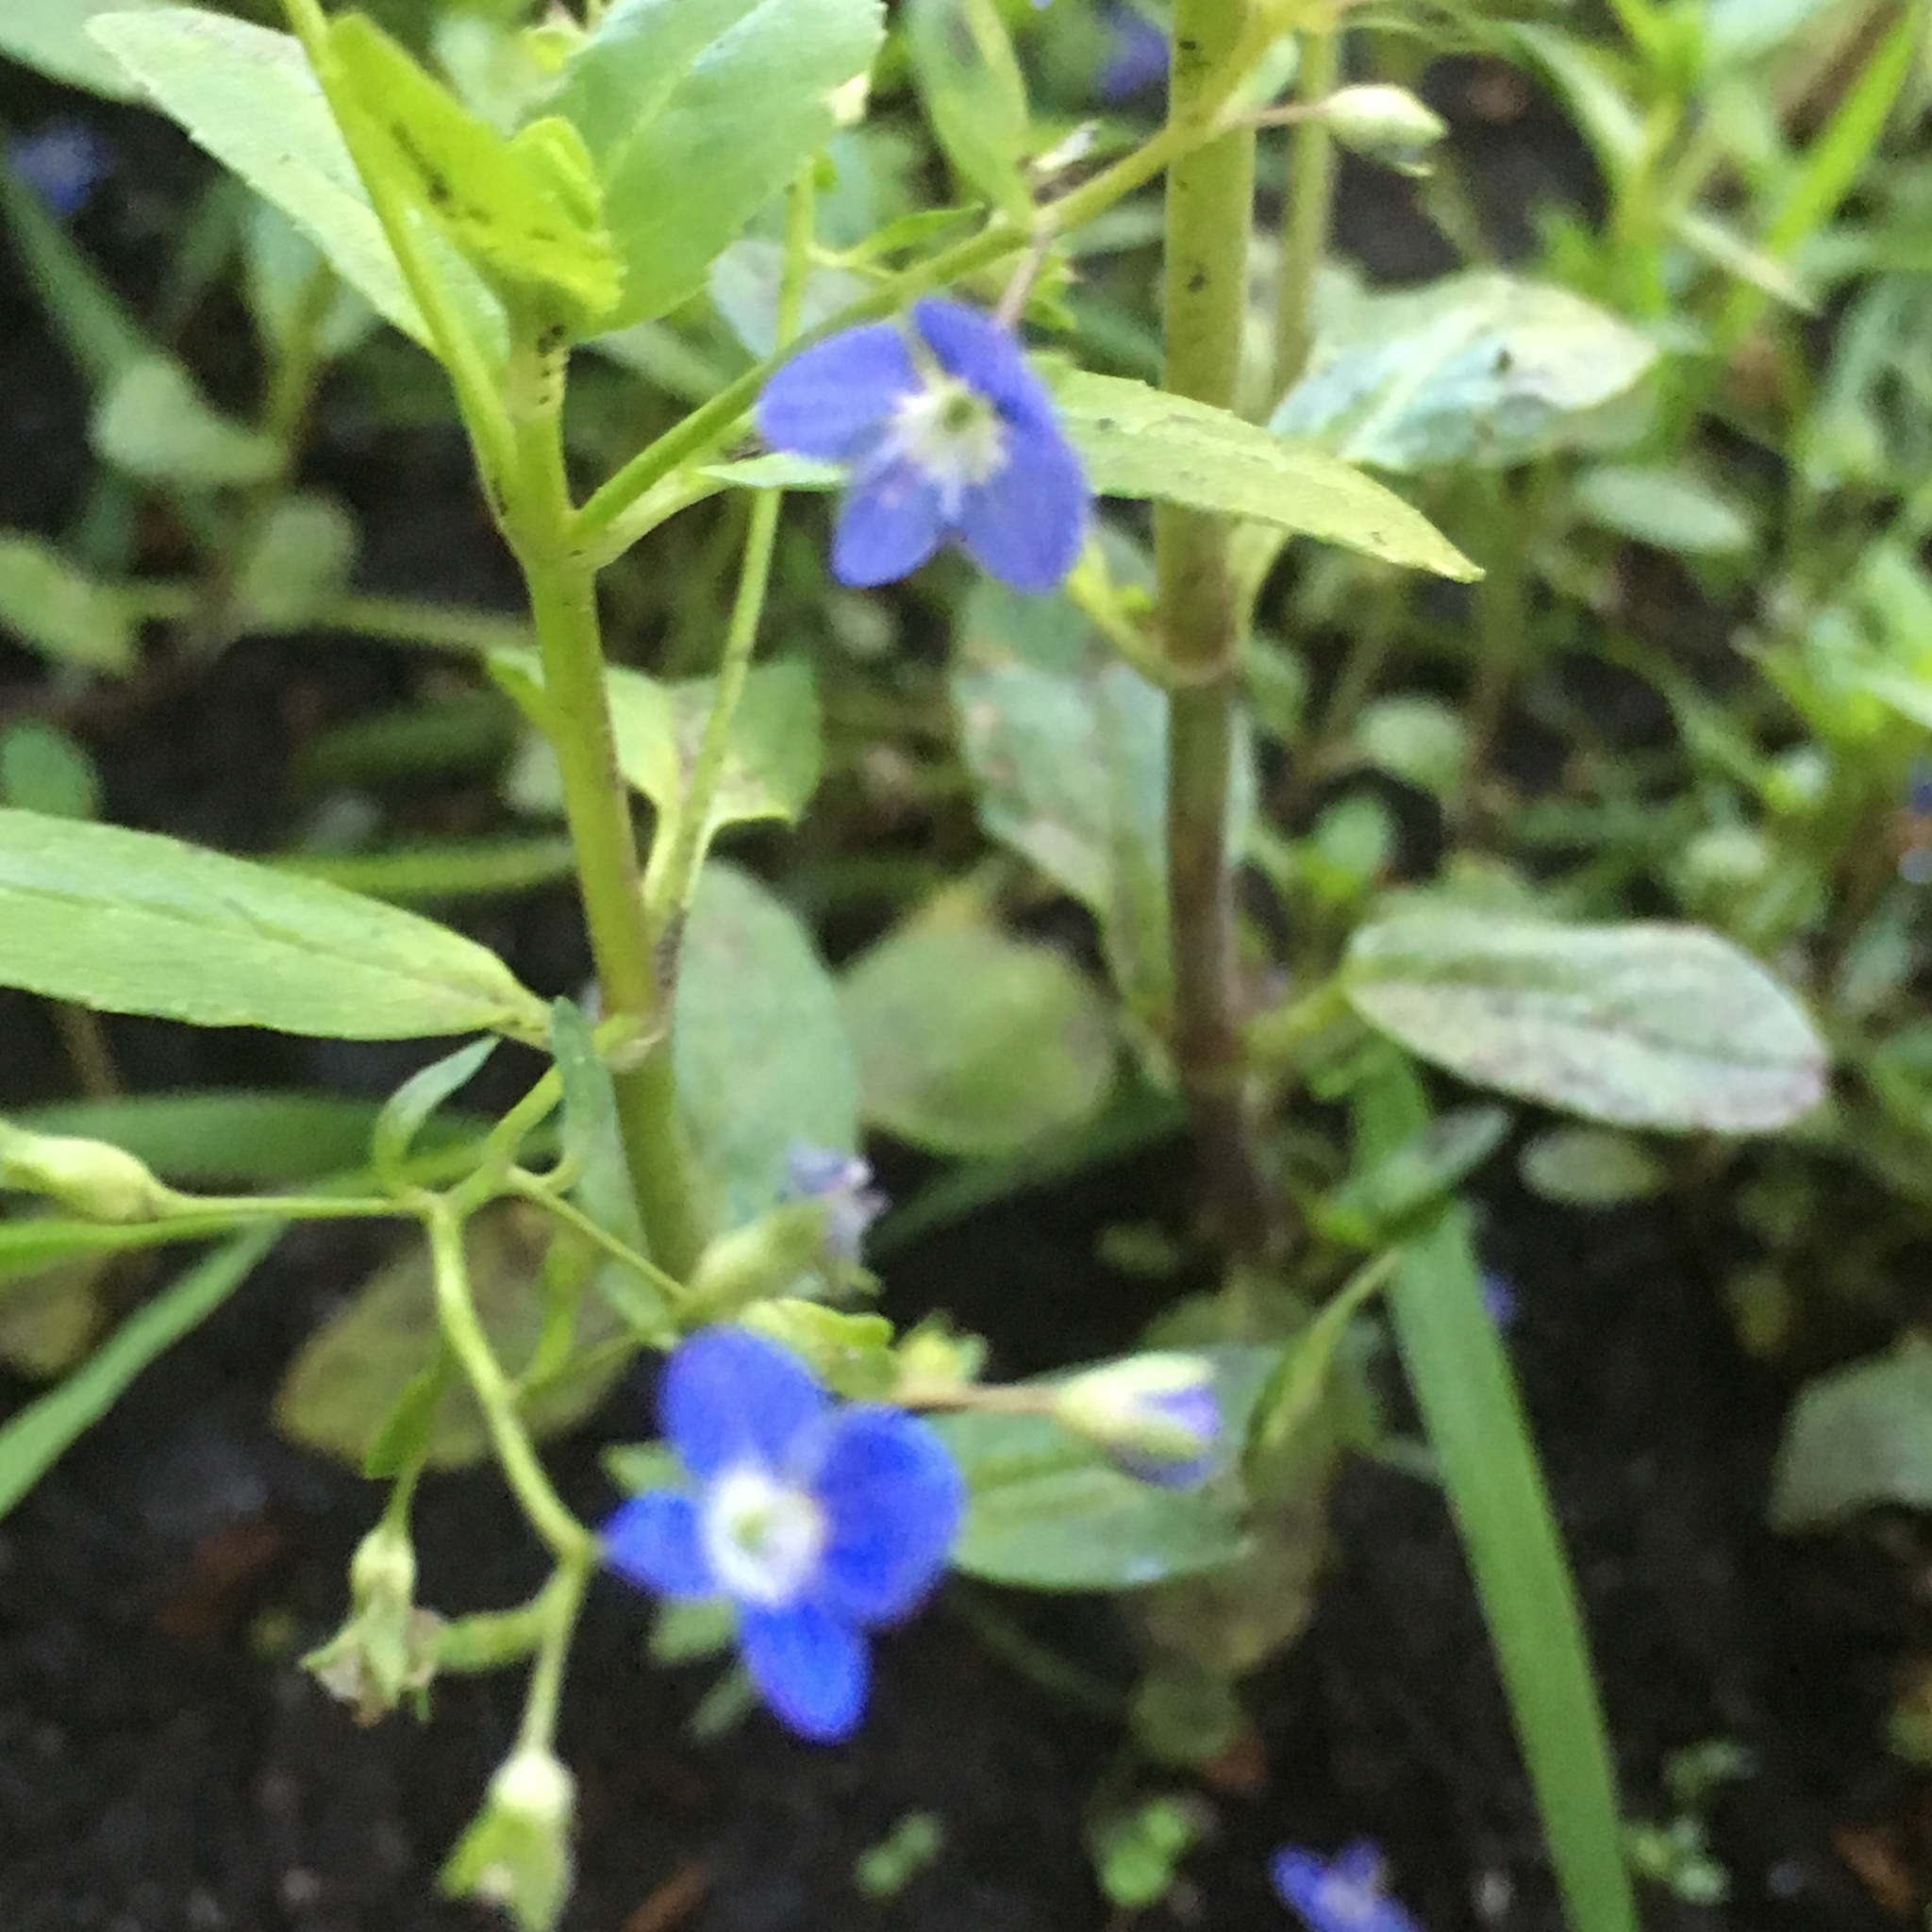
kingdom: Plantae
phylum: Tracheophyta
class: Magnoliopsida
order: Lamiales
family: Plantaginaceae
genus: Veronica
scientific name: Veronica beccabunga
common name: Brooklime
